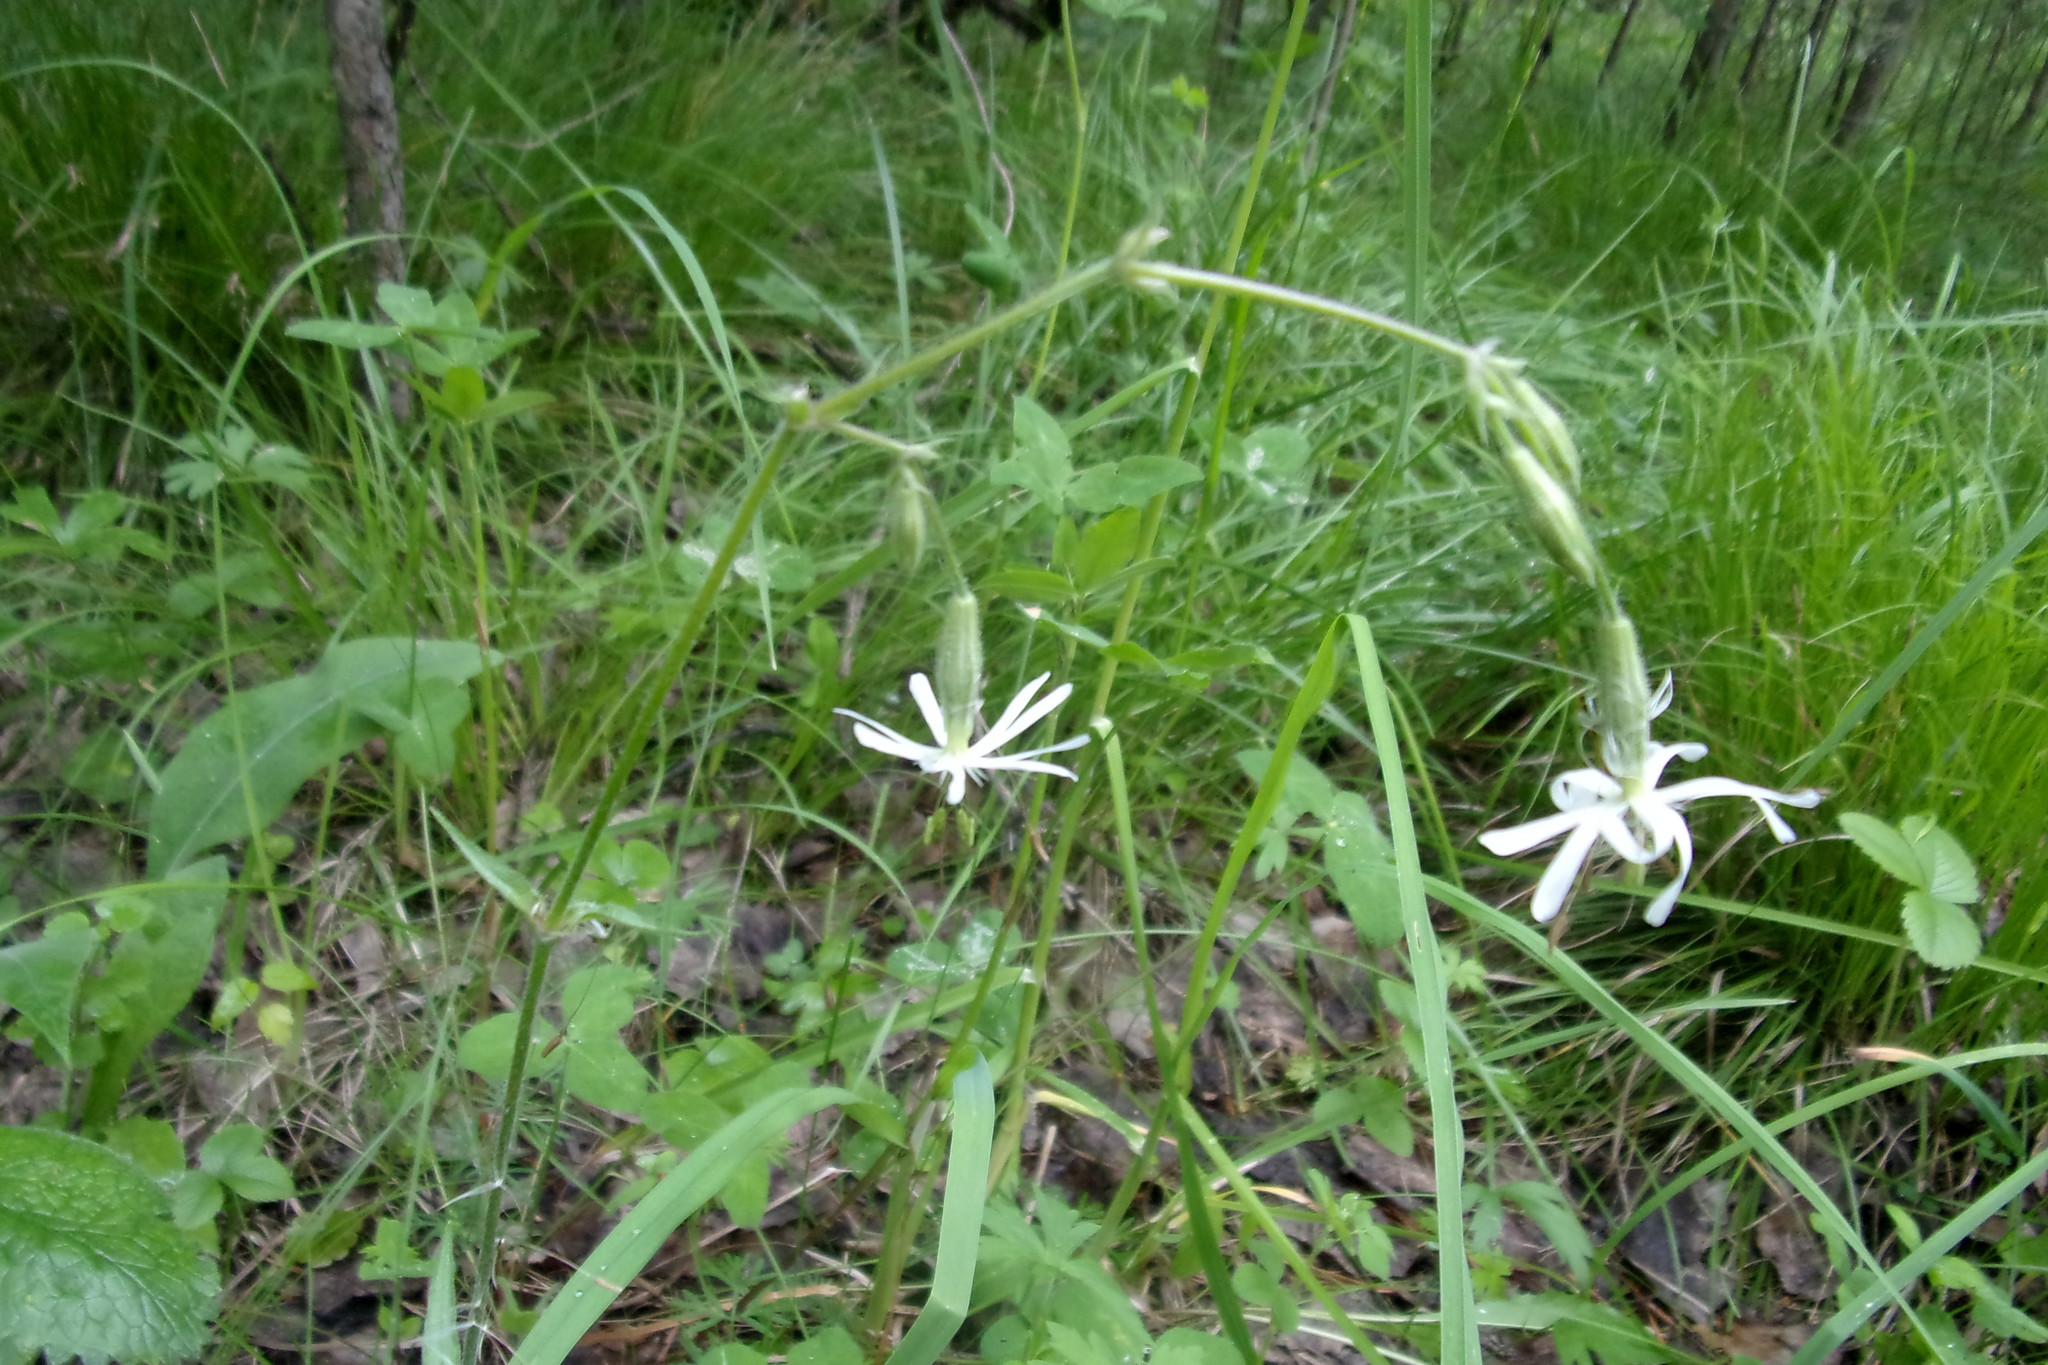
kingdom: Plantae
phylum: Tracheophyta
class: Magnoliopsida
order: Caryophyllales
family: Caryophyllaceae
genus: Silene
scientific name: Silene nutans
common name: Nottingham catchfly
